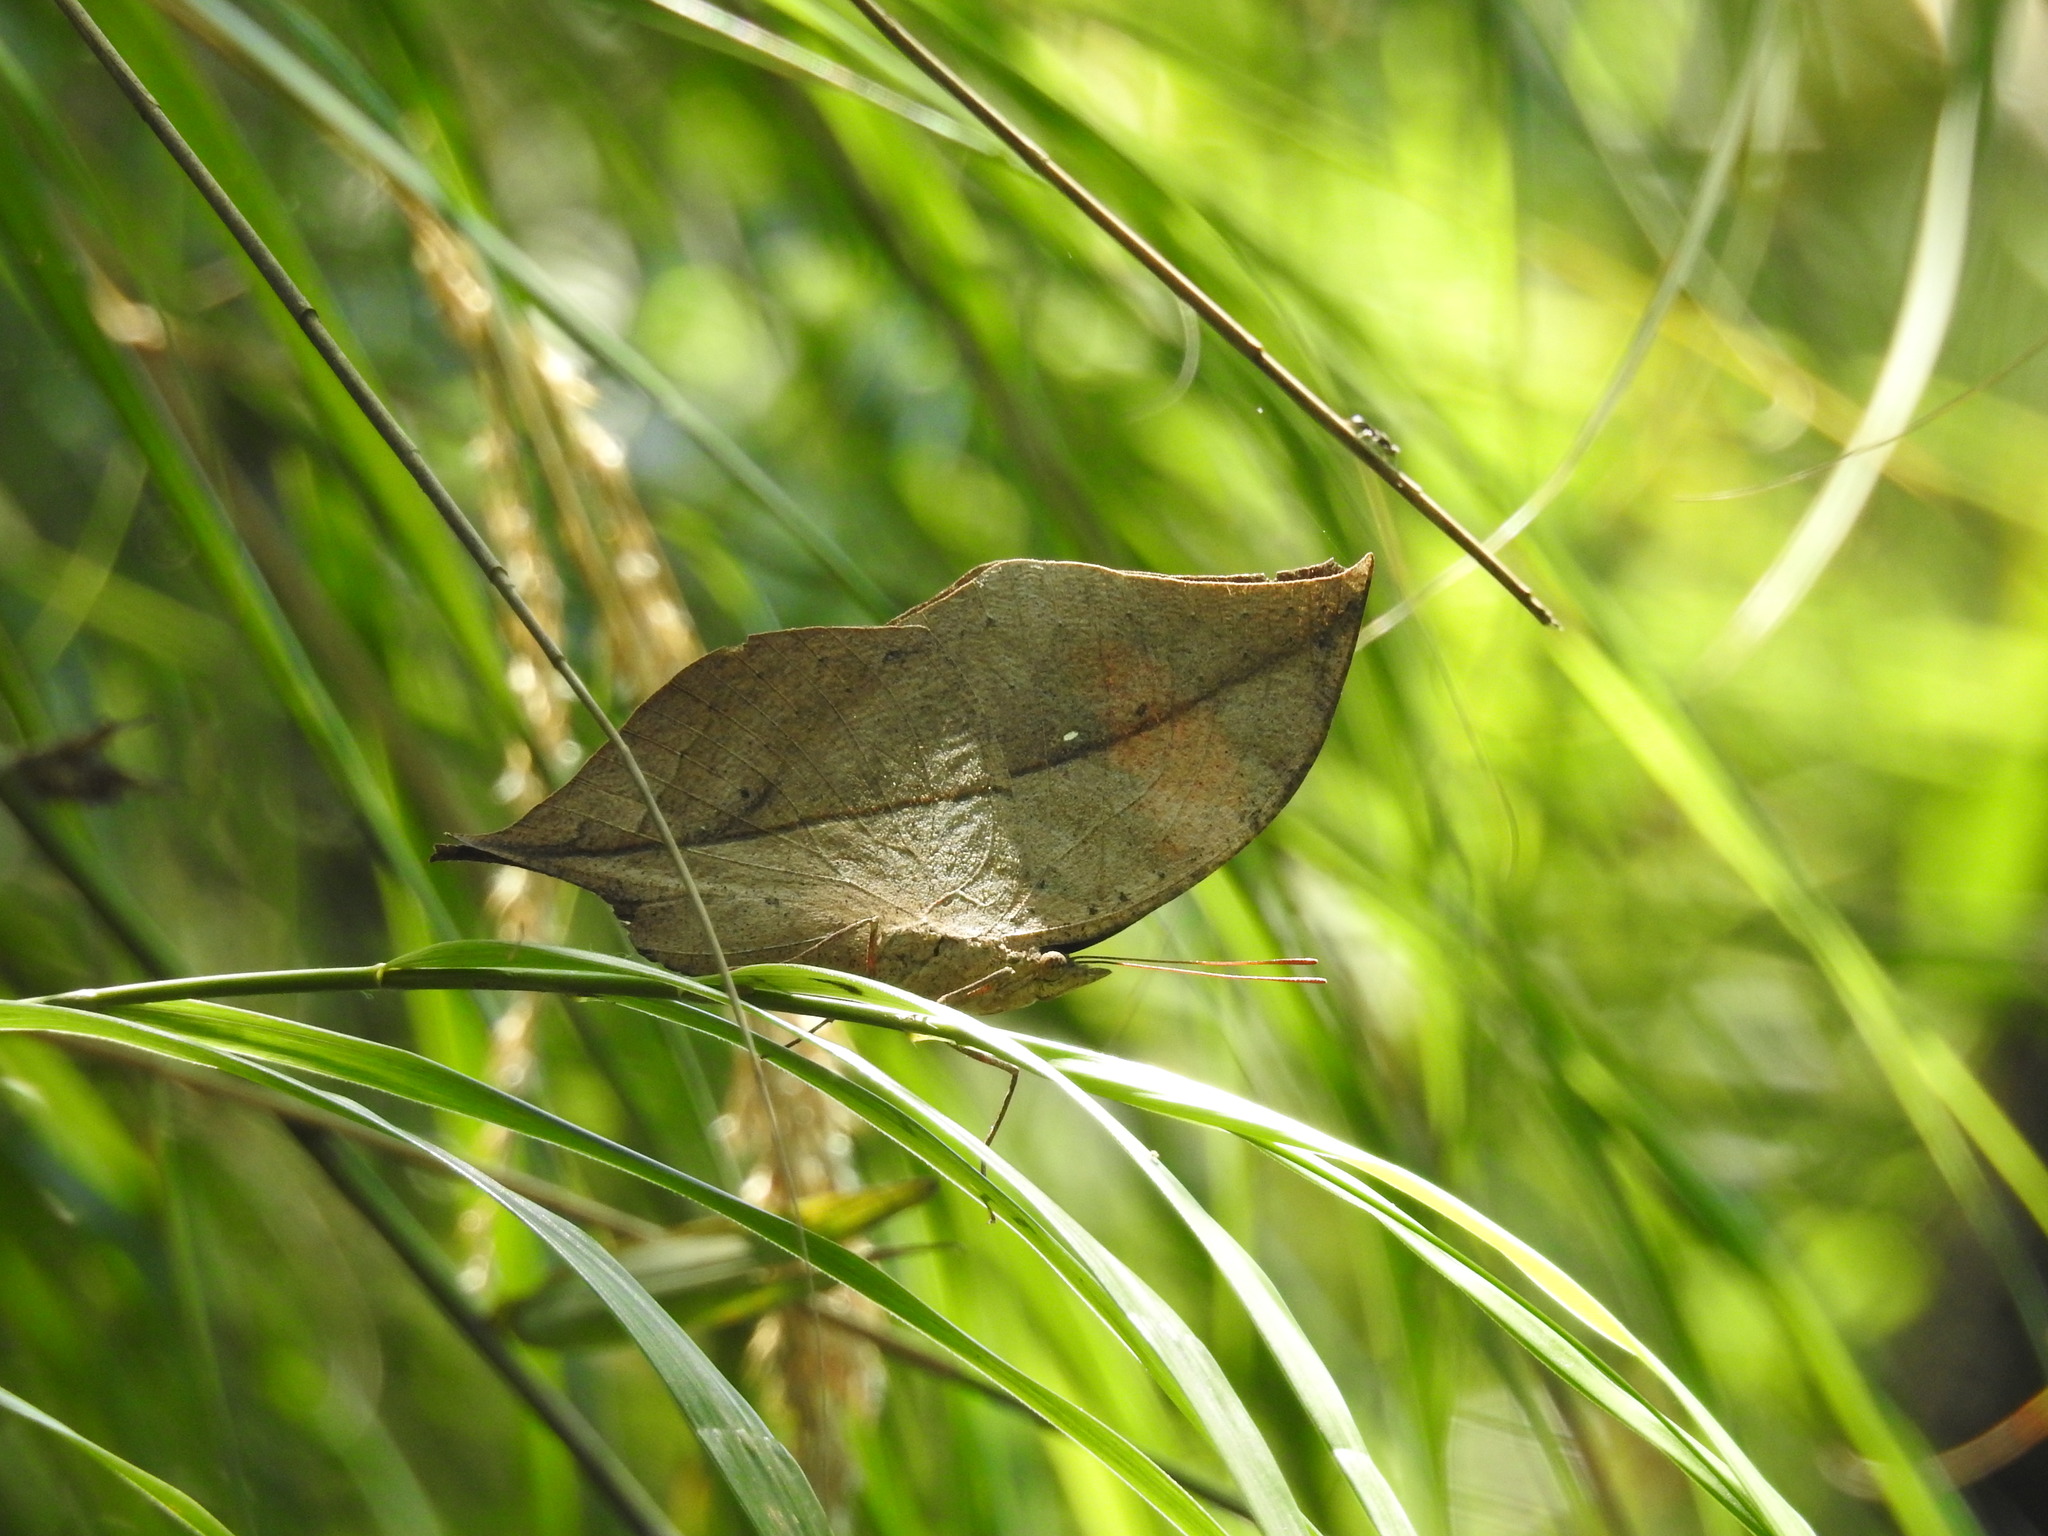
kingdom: Animalia
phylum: Arthropoda
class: Insecta
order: Lepidoptera
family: Nymphalidae
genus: Kallima
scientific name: Kallima inachus
